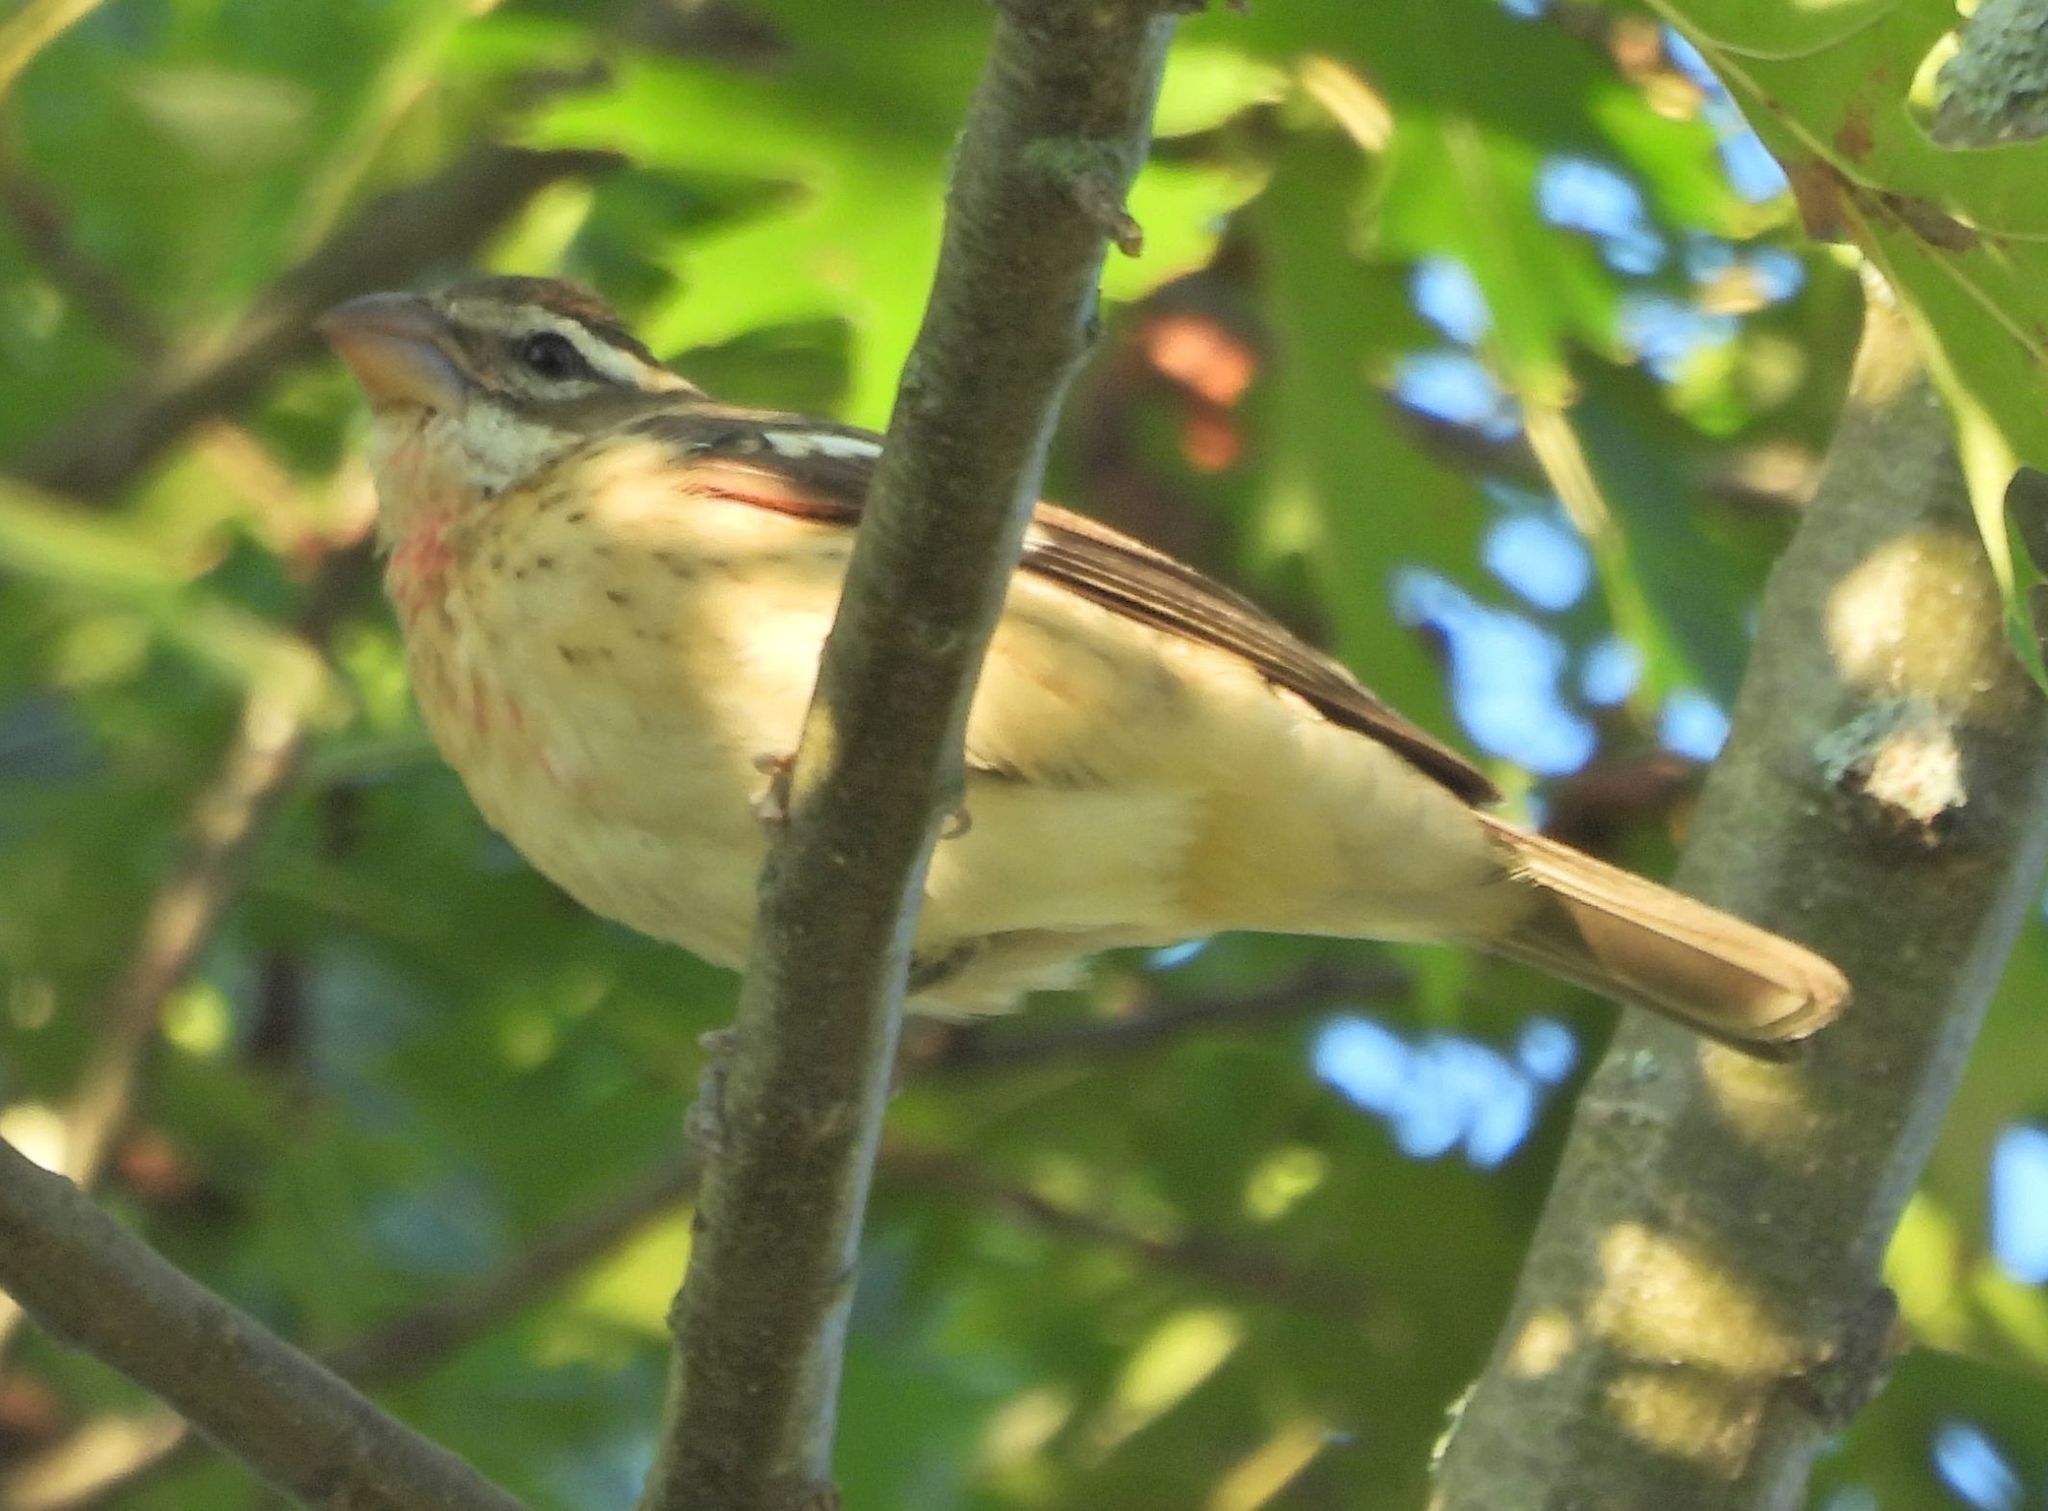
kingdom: Animalia
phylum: Chordata
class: Aves
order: Passeriformes
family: Cardinalidae
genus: Pheucticus
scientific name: Pheucticus ludovicianus
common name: Rose-breasted grosbeak
